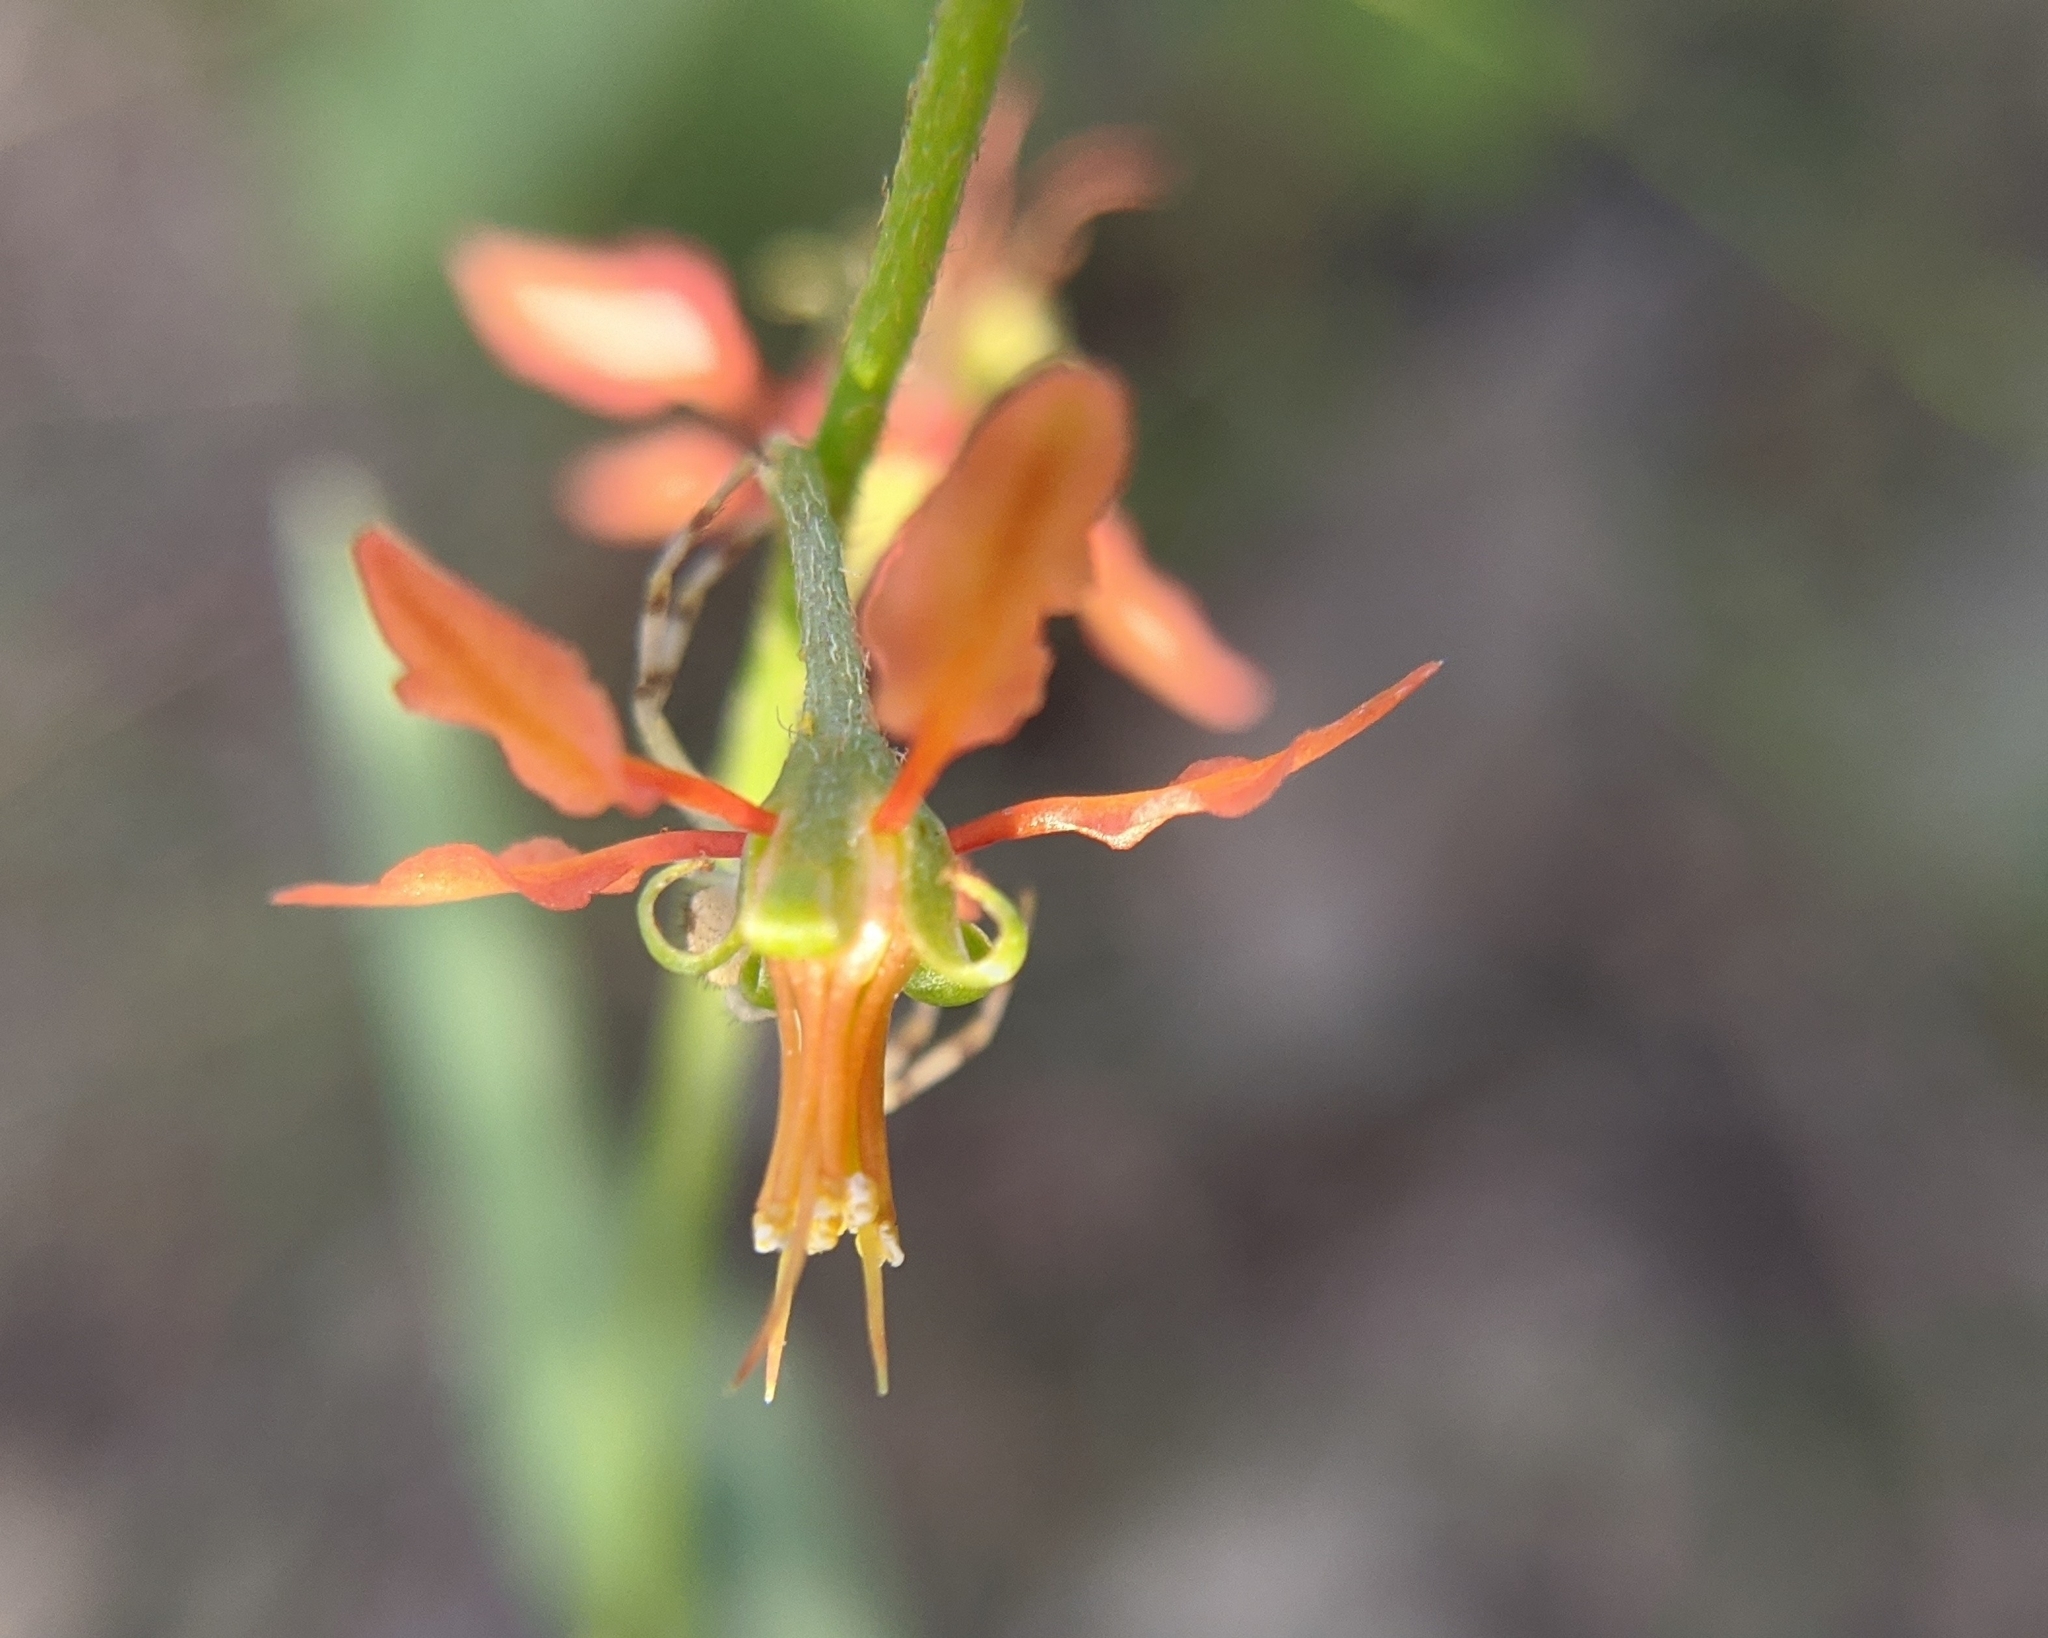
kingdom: Plantae
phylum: Tracheophyta
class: Magnoliopsida
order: Malpighiales
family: Malpighiaceae
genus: Galphimia
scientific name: Galphimia angustifolia
